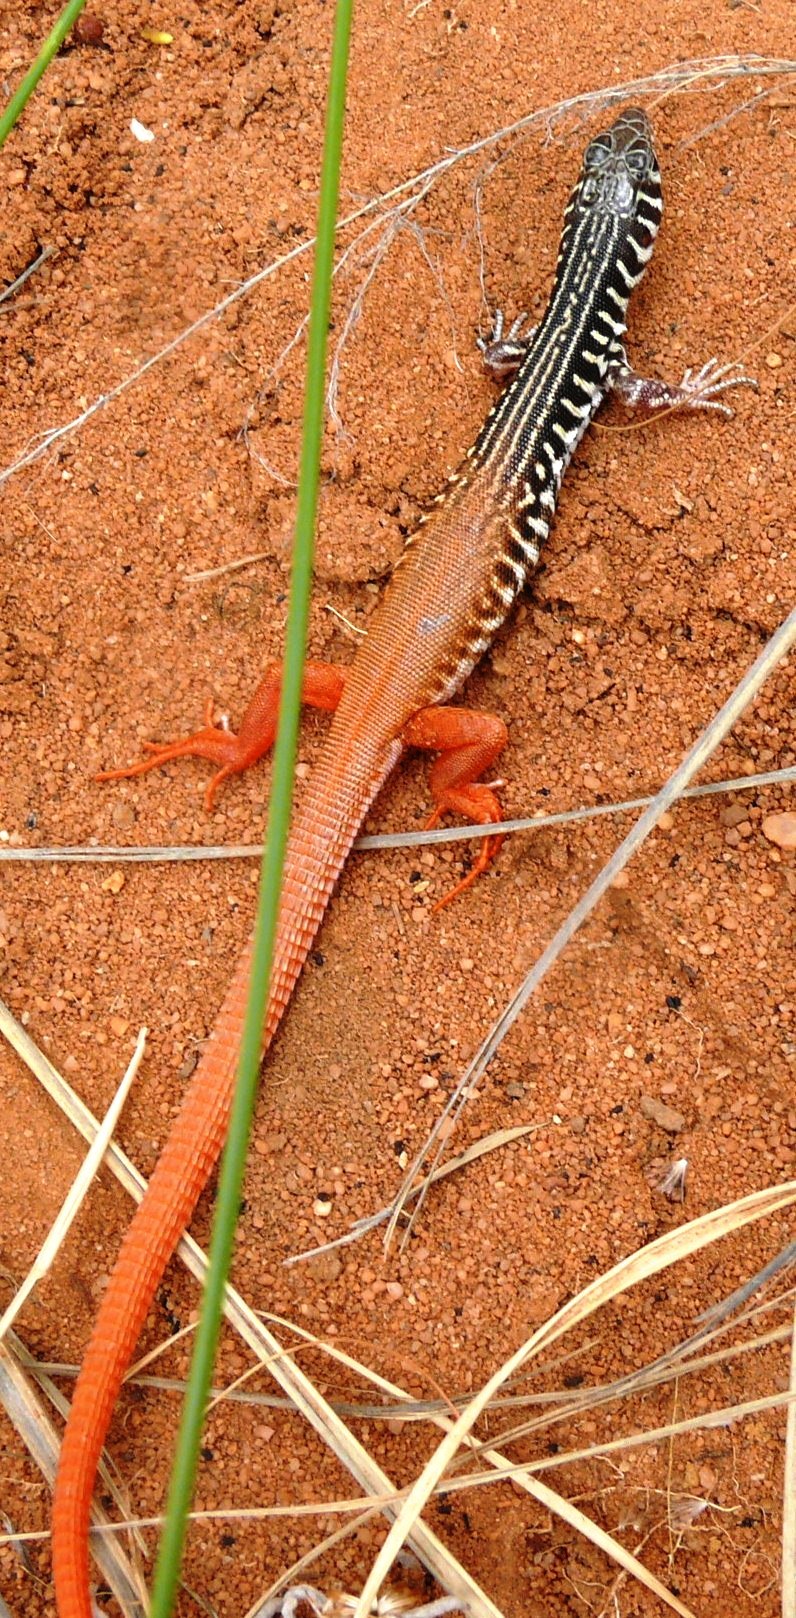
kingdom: Animalia
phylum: Chordata
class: Squamata
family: Lacertidae
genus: Nucras
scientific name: Nucras tessellata
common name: Western sandveld lizard
